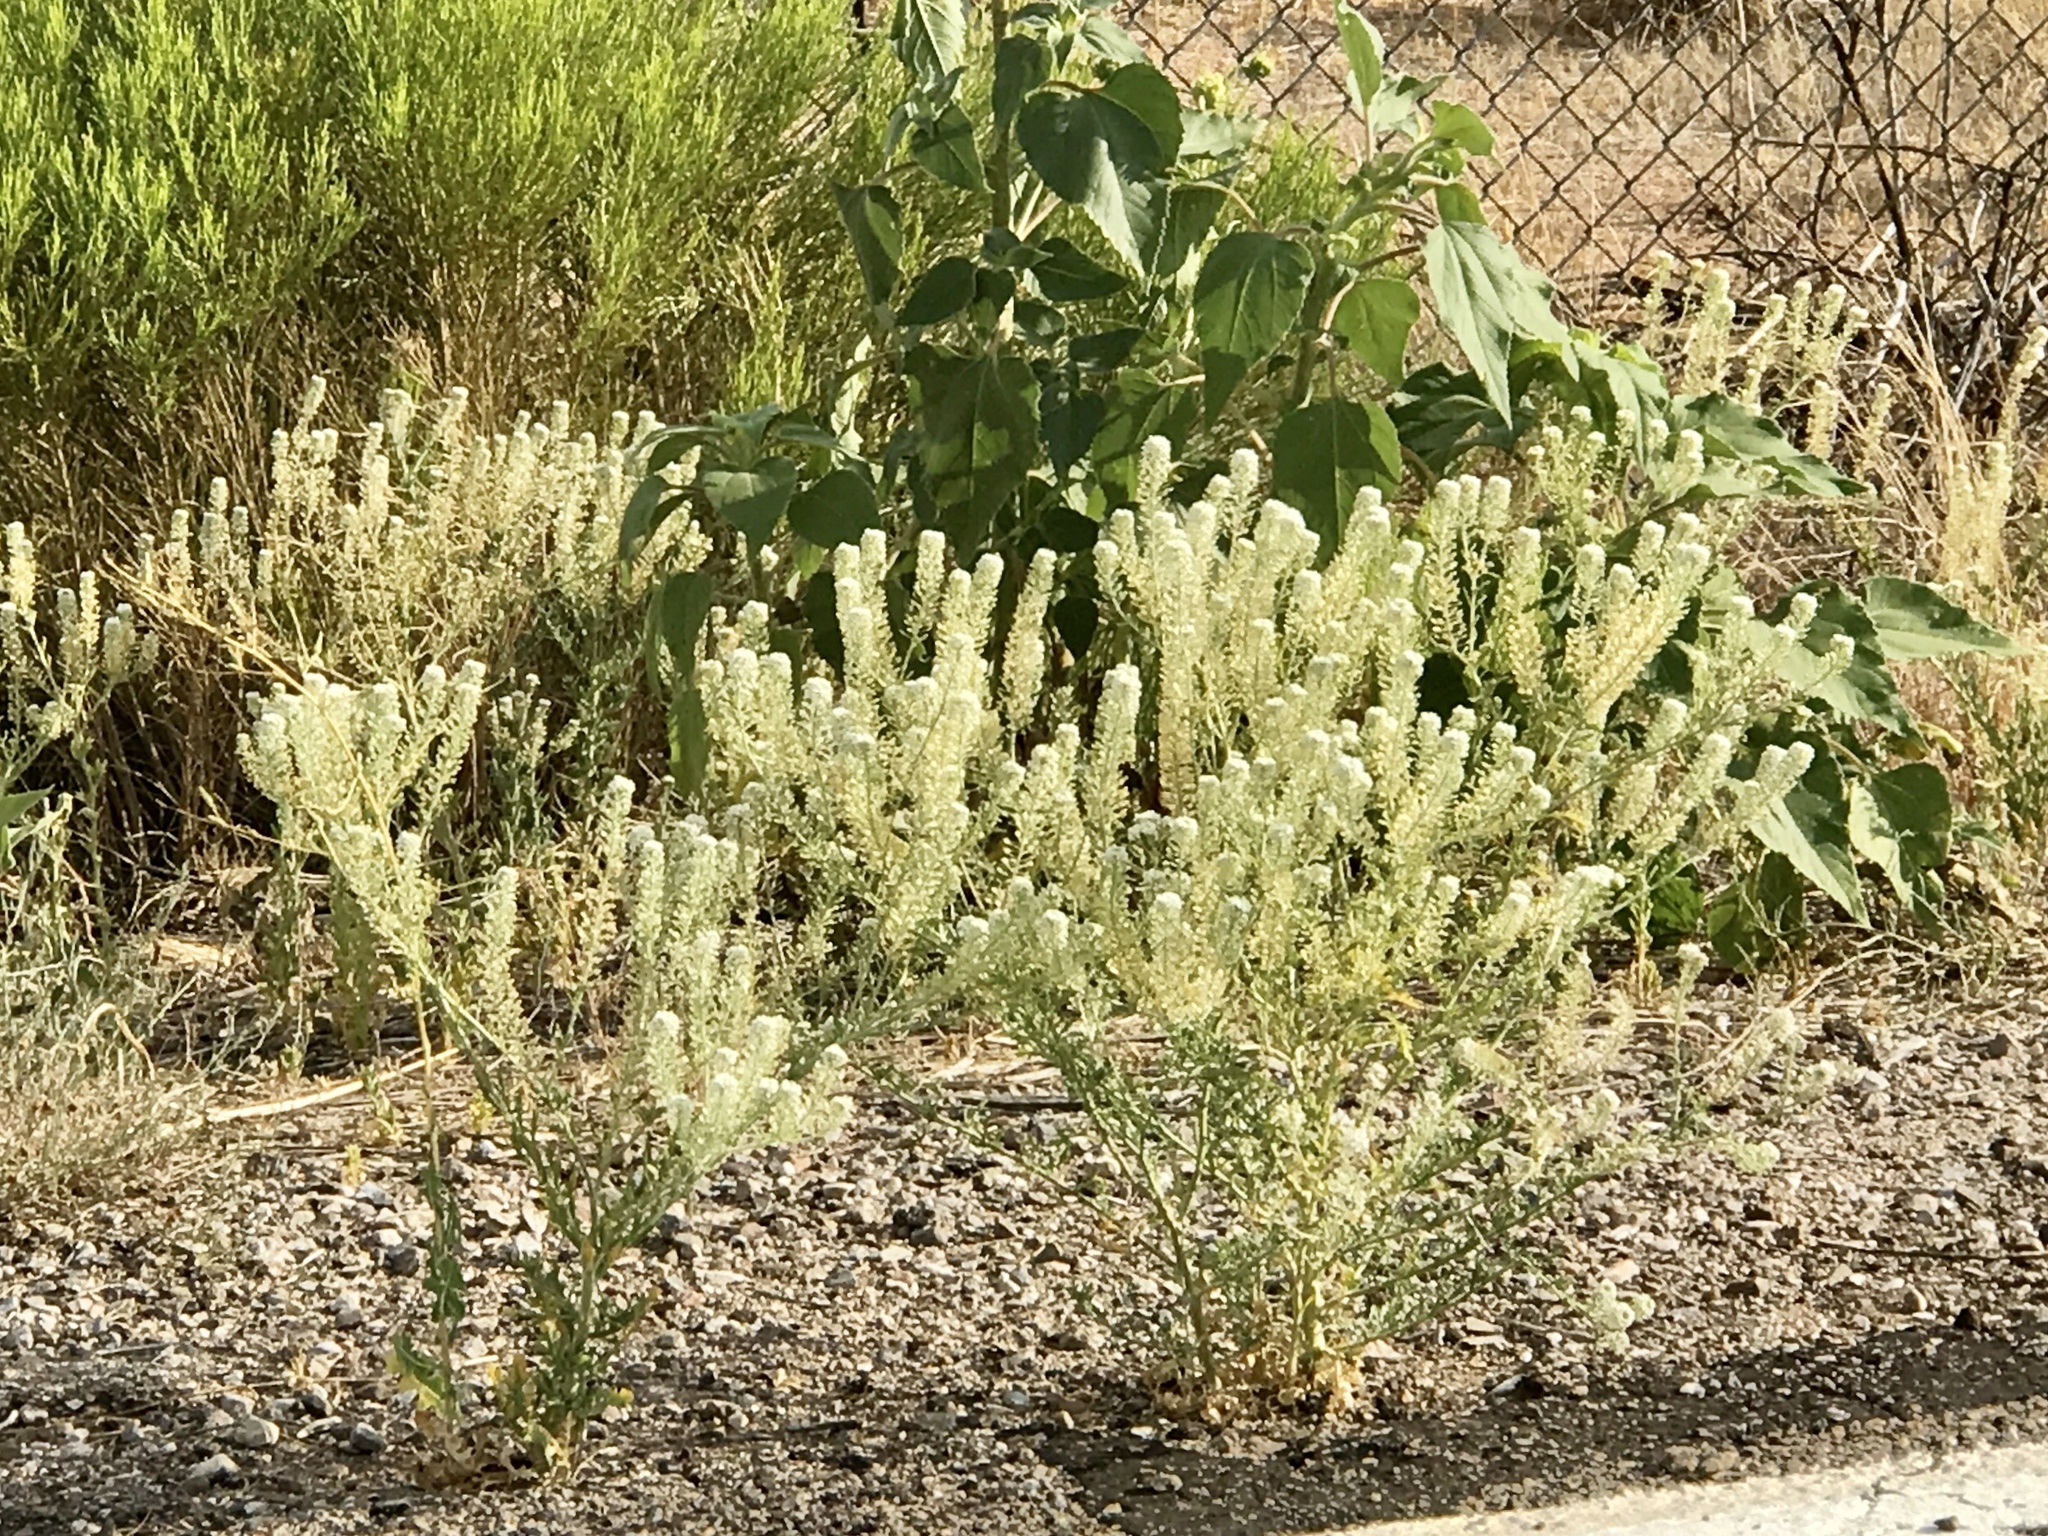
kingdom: Plantae
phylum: Tracheophyta
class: Magnoliopsida
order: Brassicales
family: Brassicaceae
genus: Lepidium
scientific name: Lepidium thurberi
